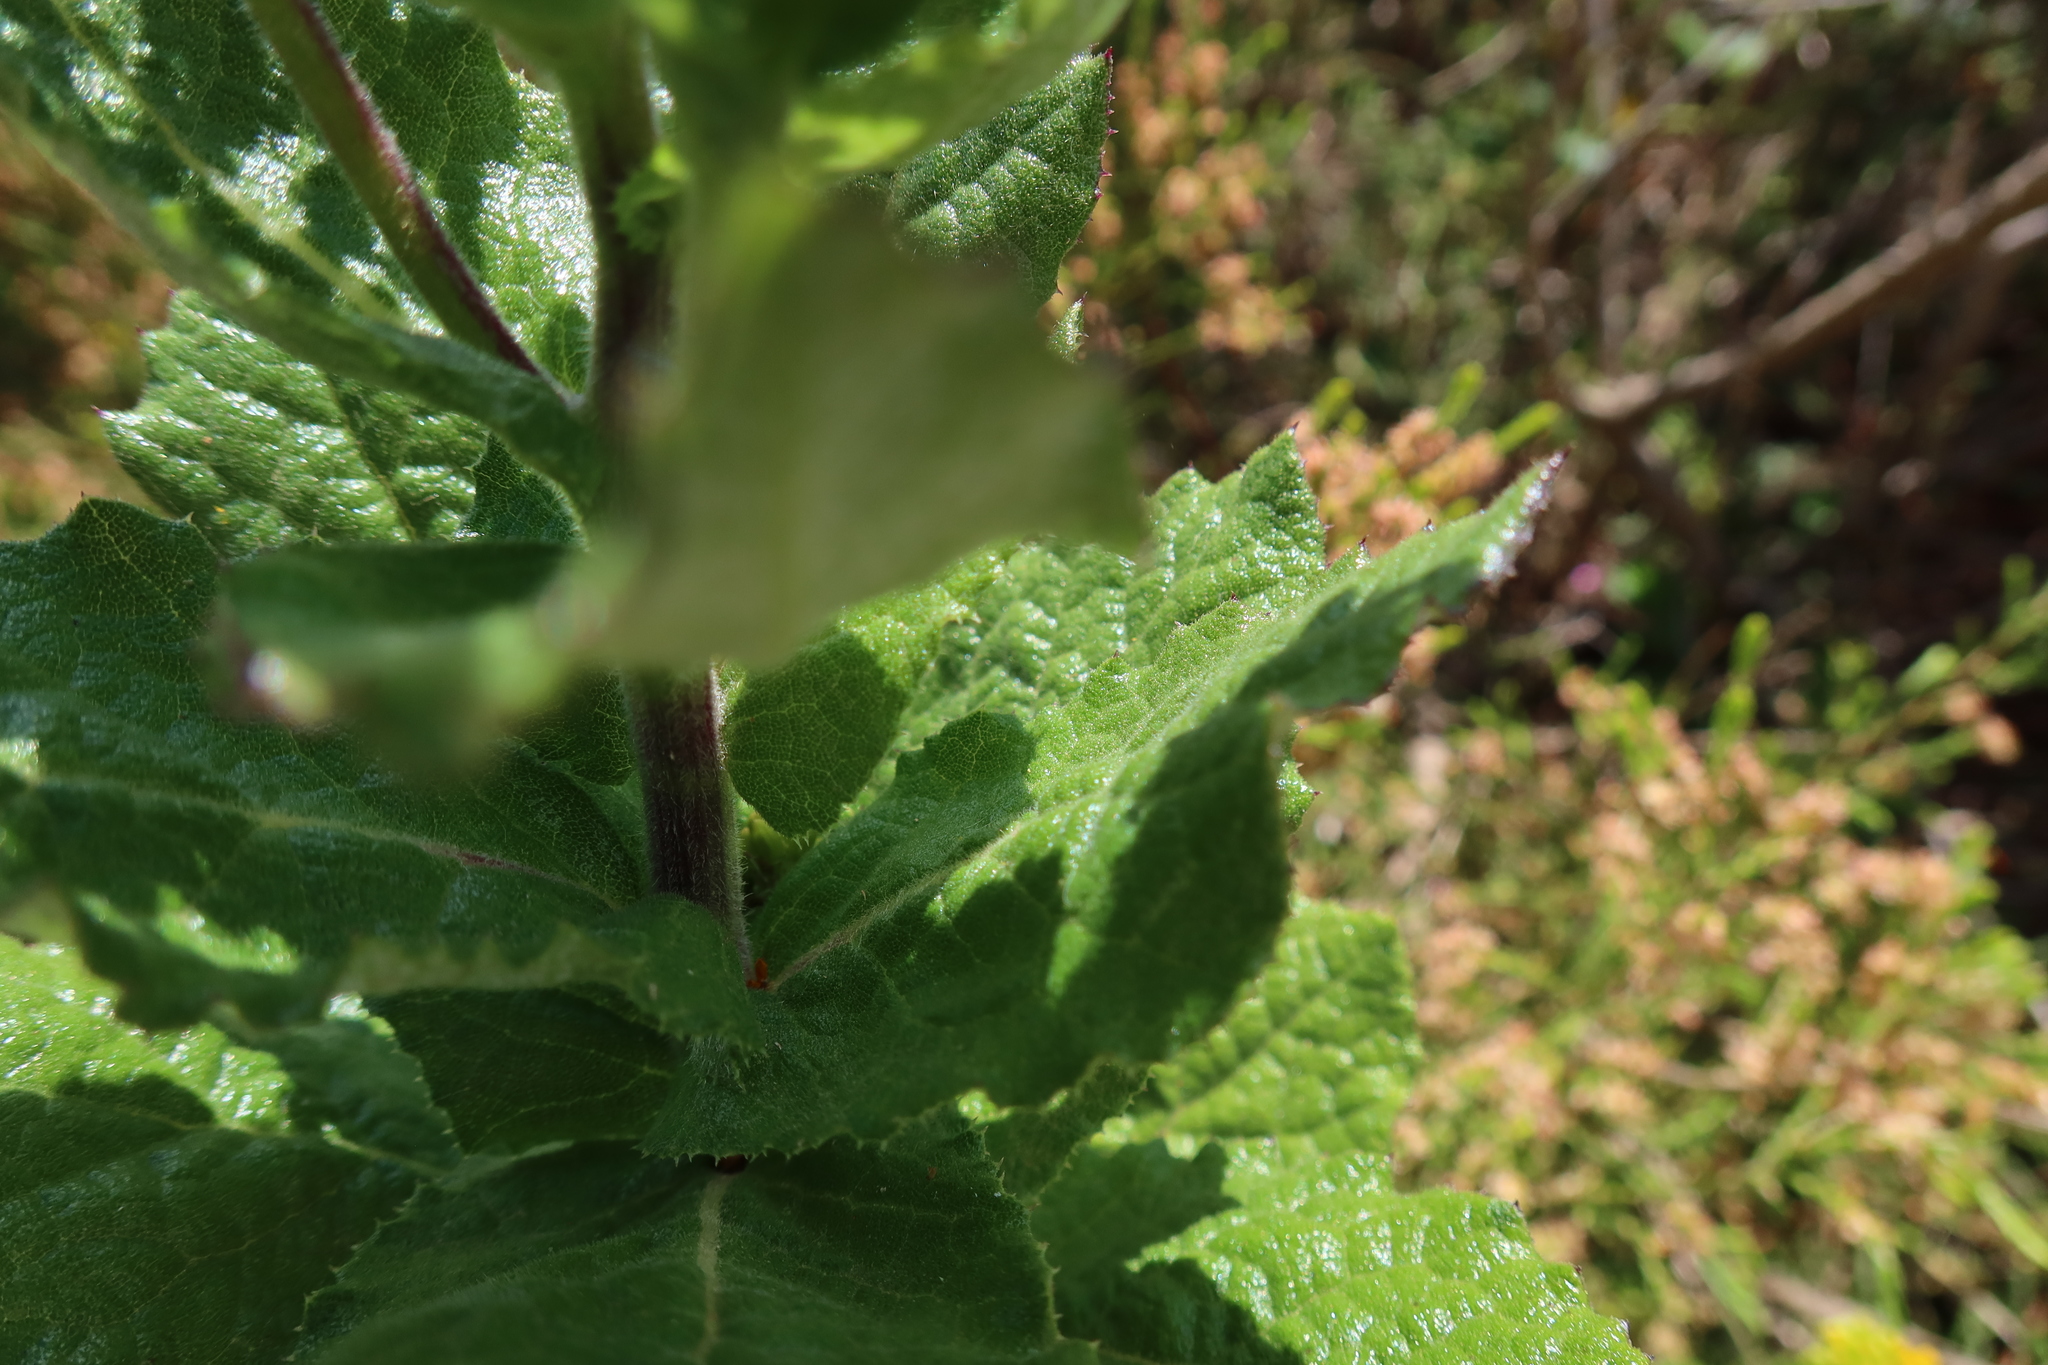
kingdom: Plantae
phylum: Tracheophyta
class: Magnoliopsida
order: Asterales
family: Asteraceae
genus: Senecio
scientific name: Senecio rigidus
